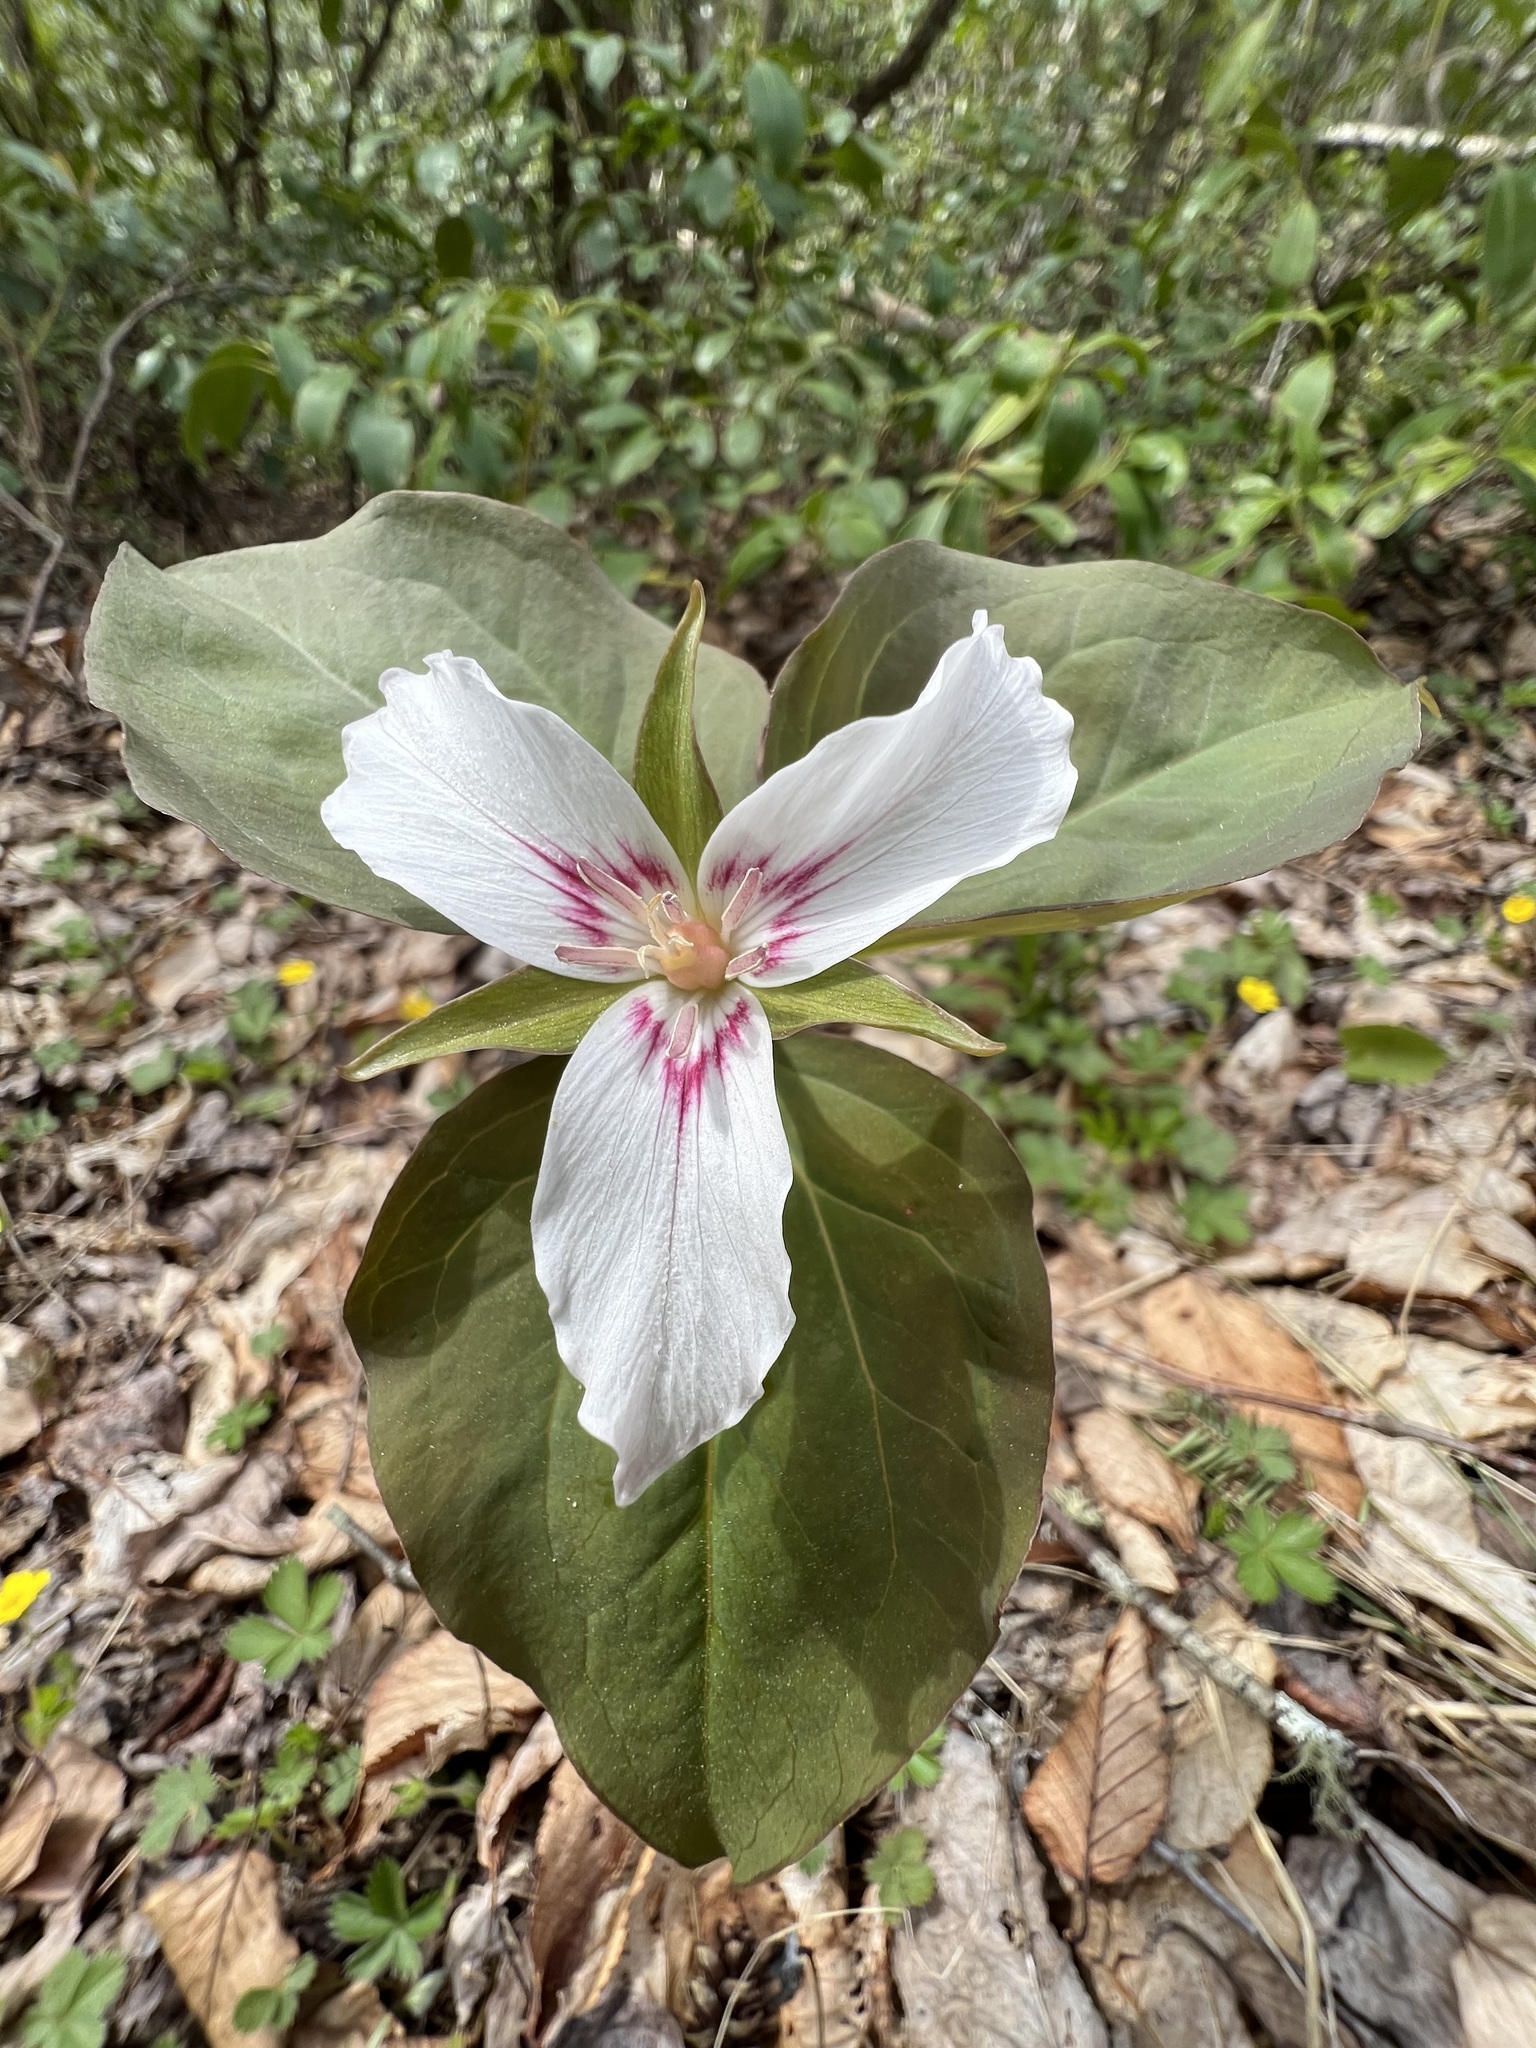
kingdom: Plantae
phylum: Tracheophyta
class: Liliopsida
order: Liliales
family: Melanthiaceae
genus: Trillium
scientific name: Trillium undulatum
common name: Paint trillium
